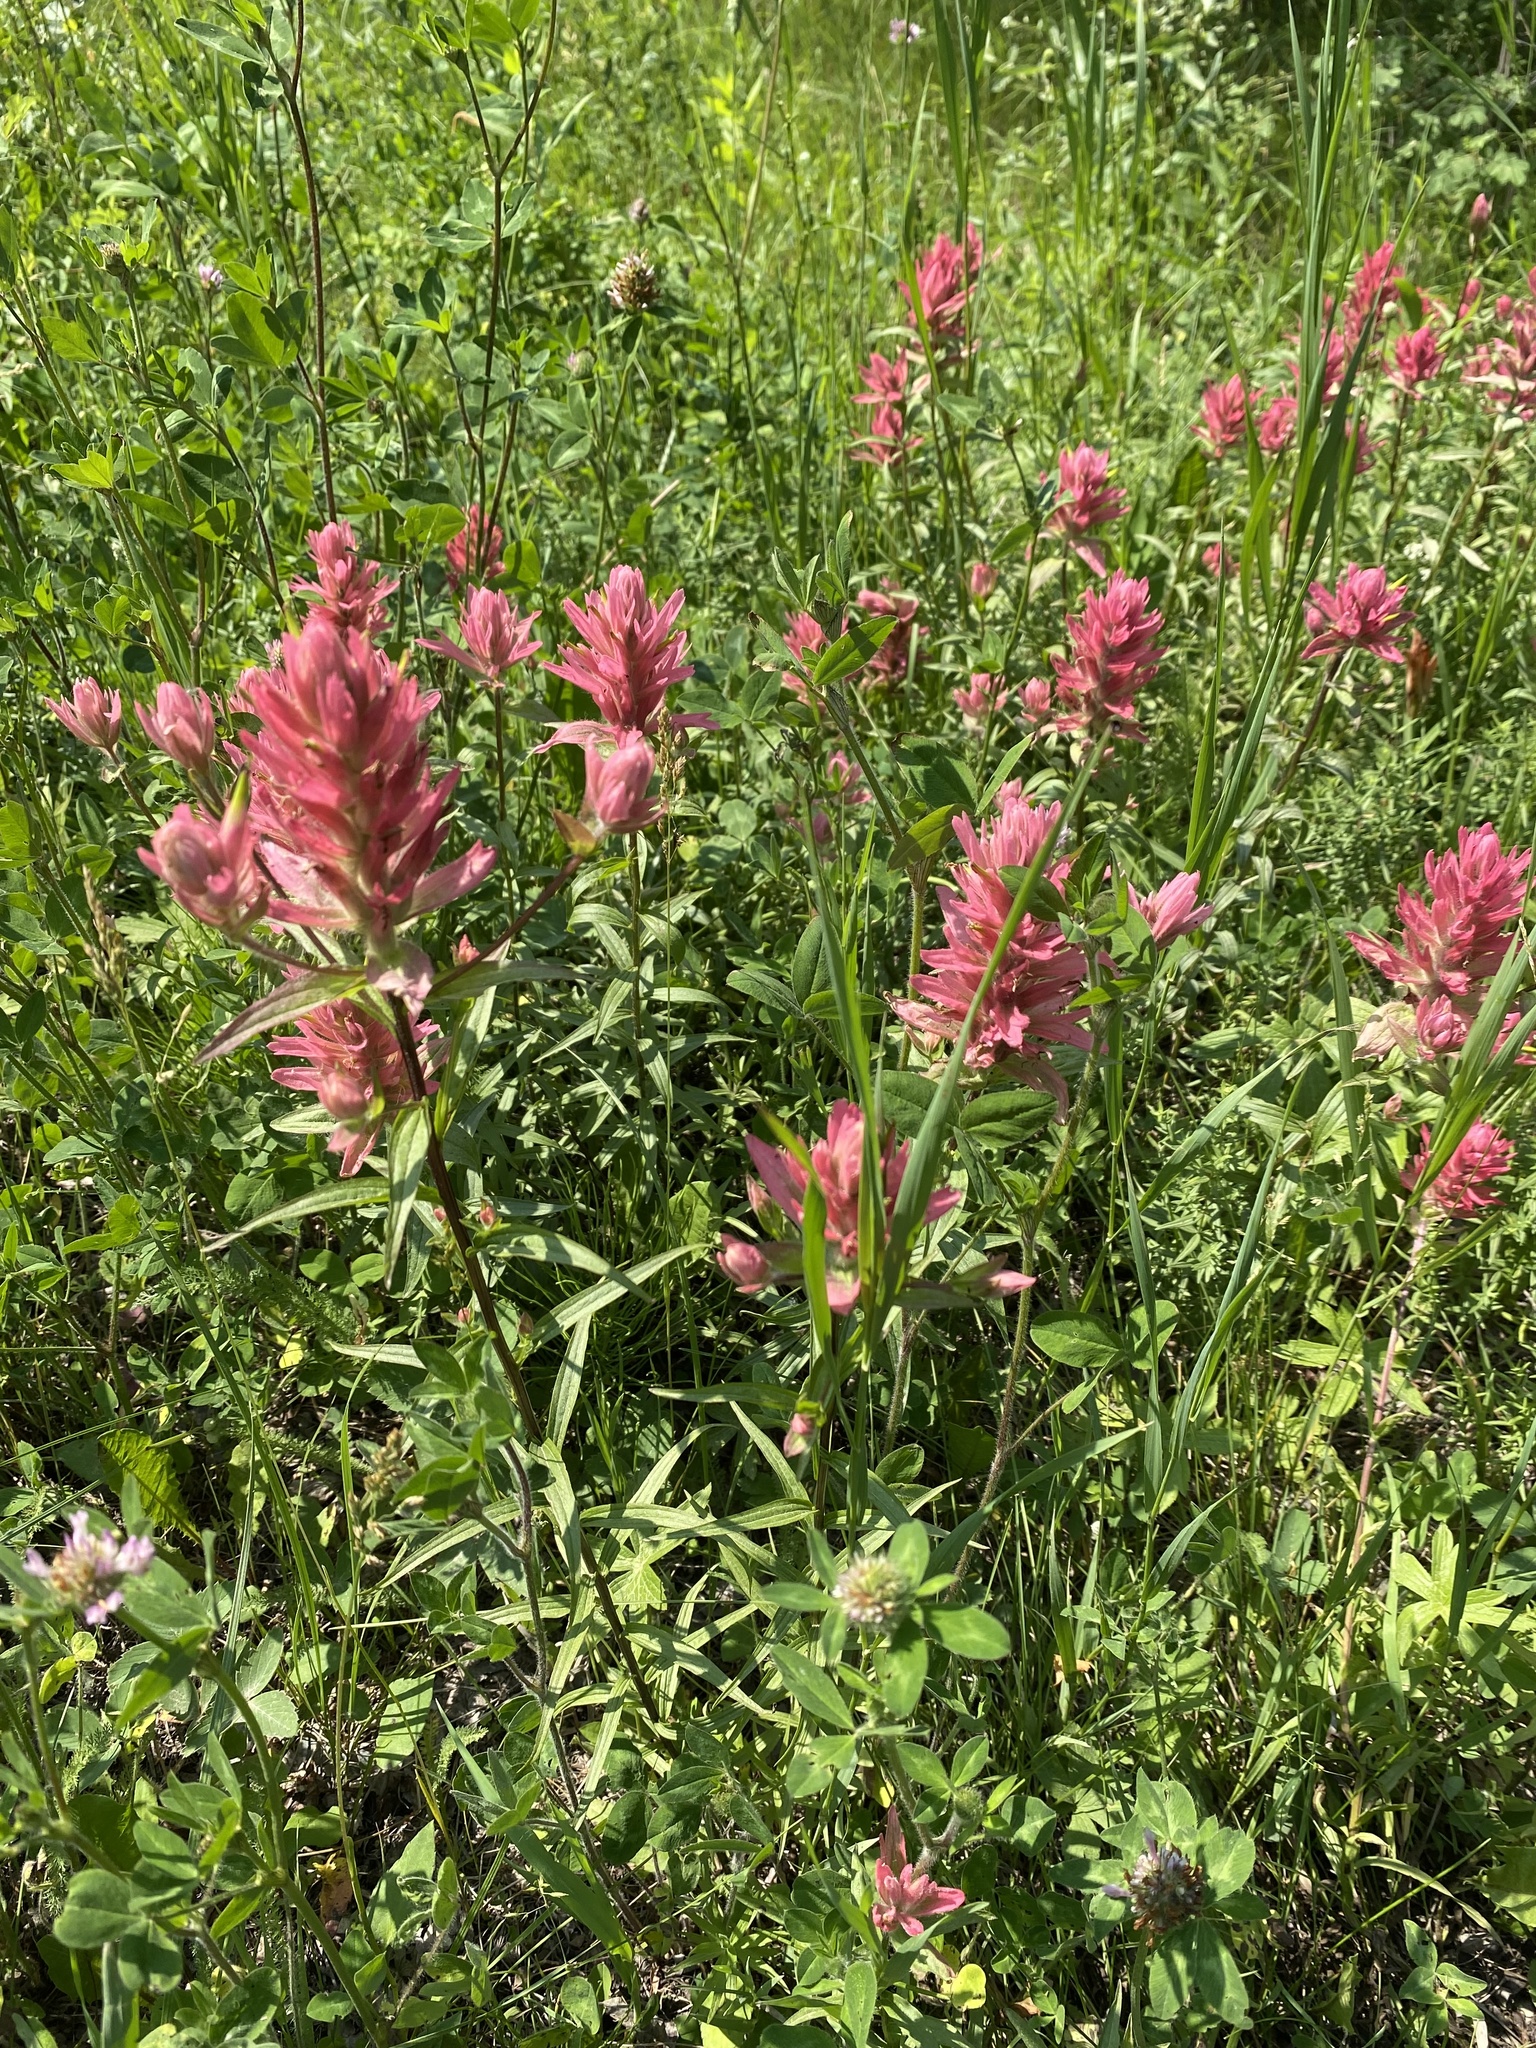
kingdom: Plantae
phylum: Tracheophyta
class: Magnoliopsida
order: Lamiales
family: Orobanchaceae
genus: Castilleja
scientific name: Castilleja miniata
